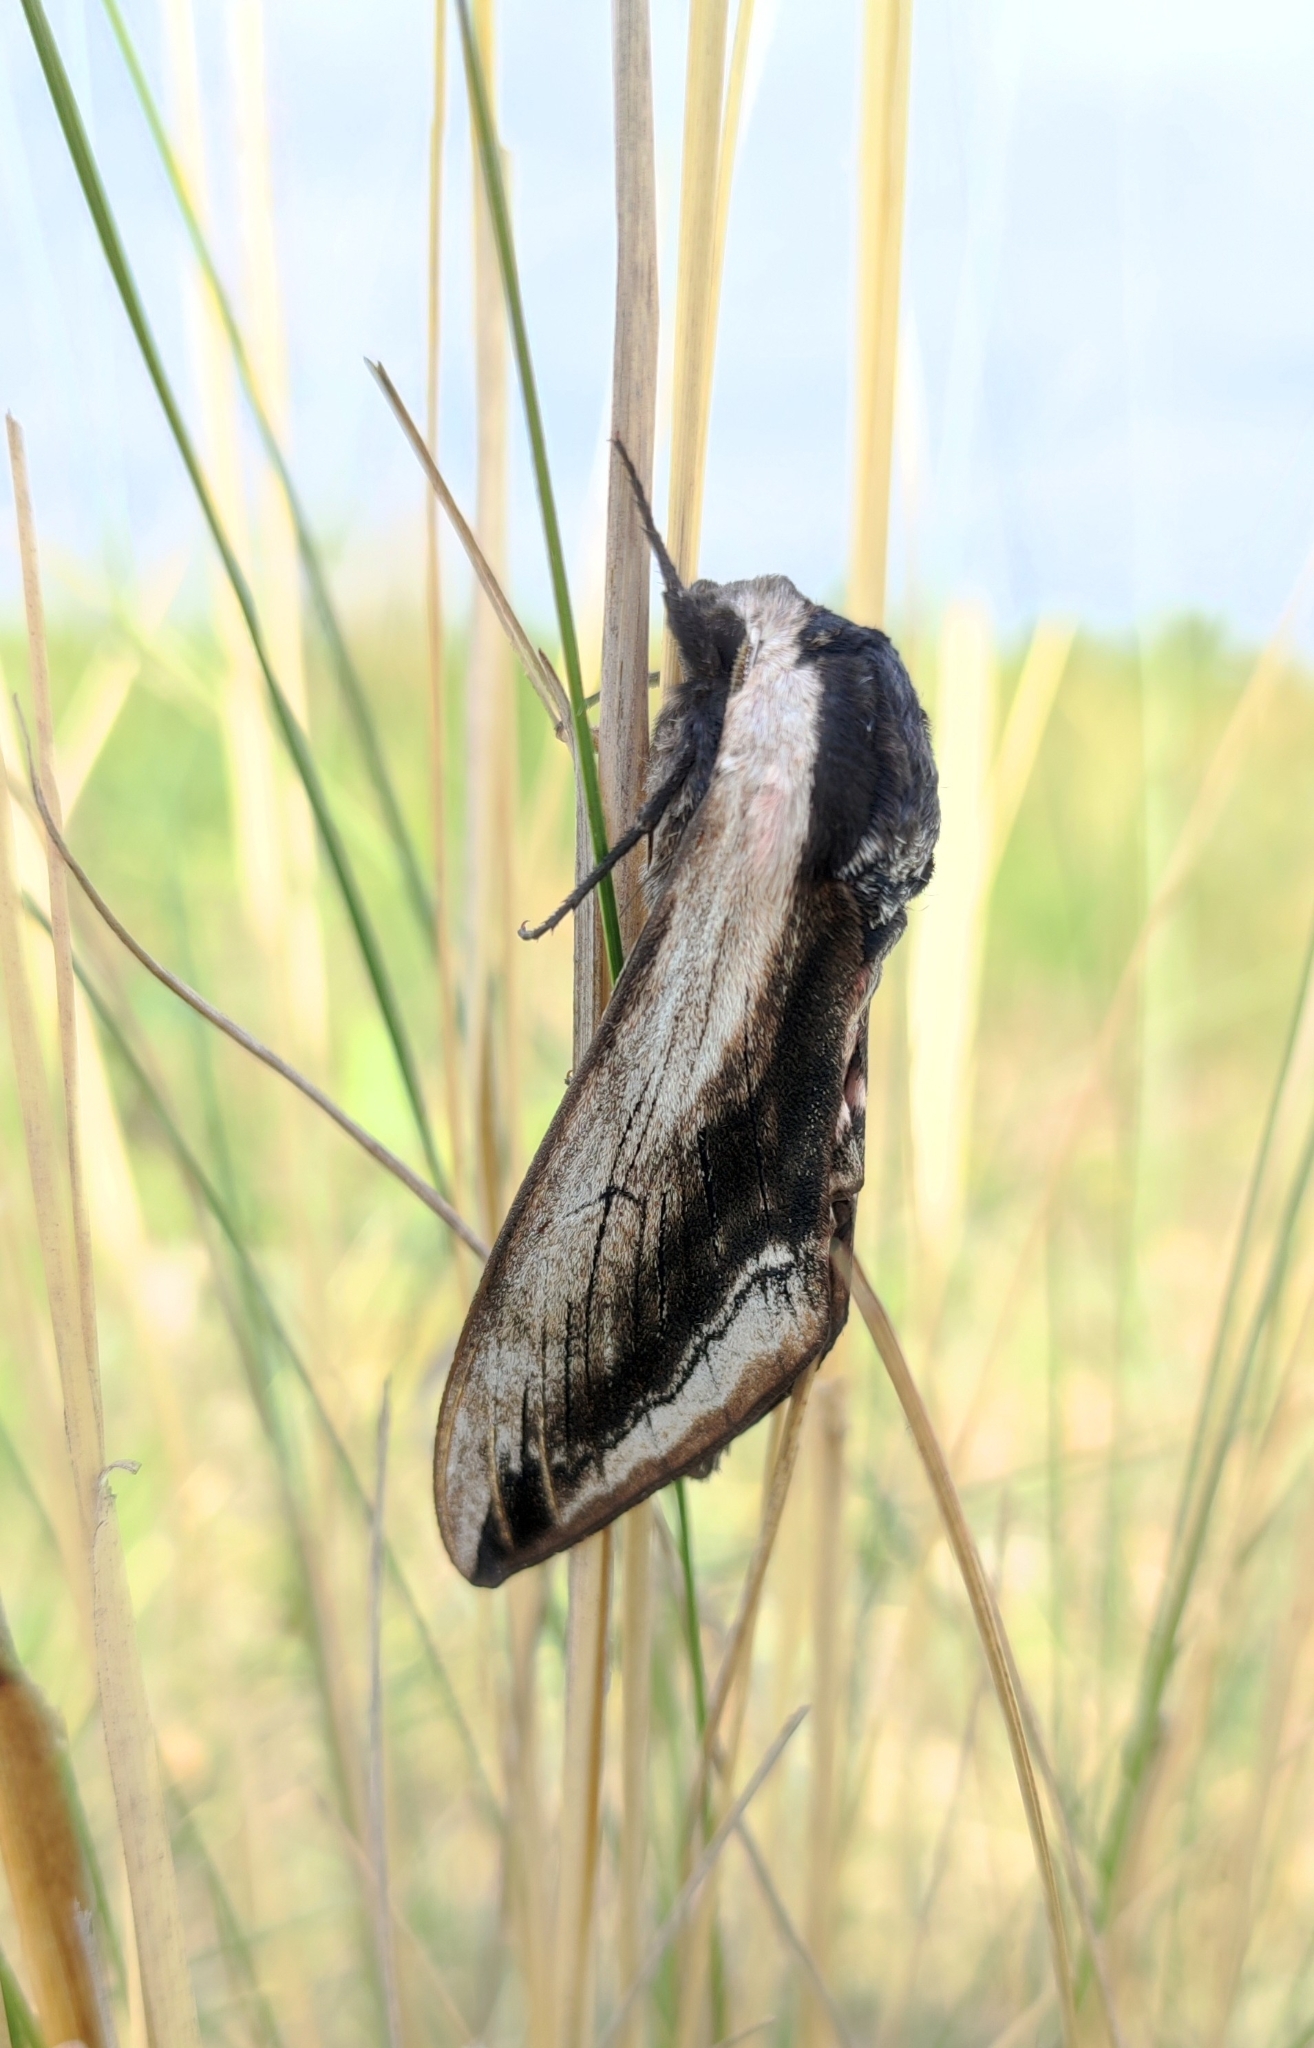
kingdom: Animalia
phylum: Arthropoda
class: Insecta
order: Lepidoptera
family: Sphingidae
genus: Sphinx
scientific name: Sphinx ligustri
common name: Privet hawk-moth
